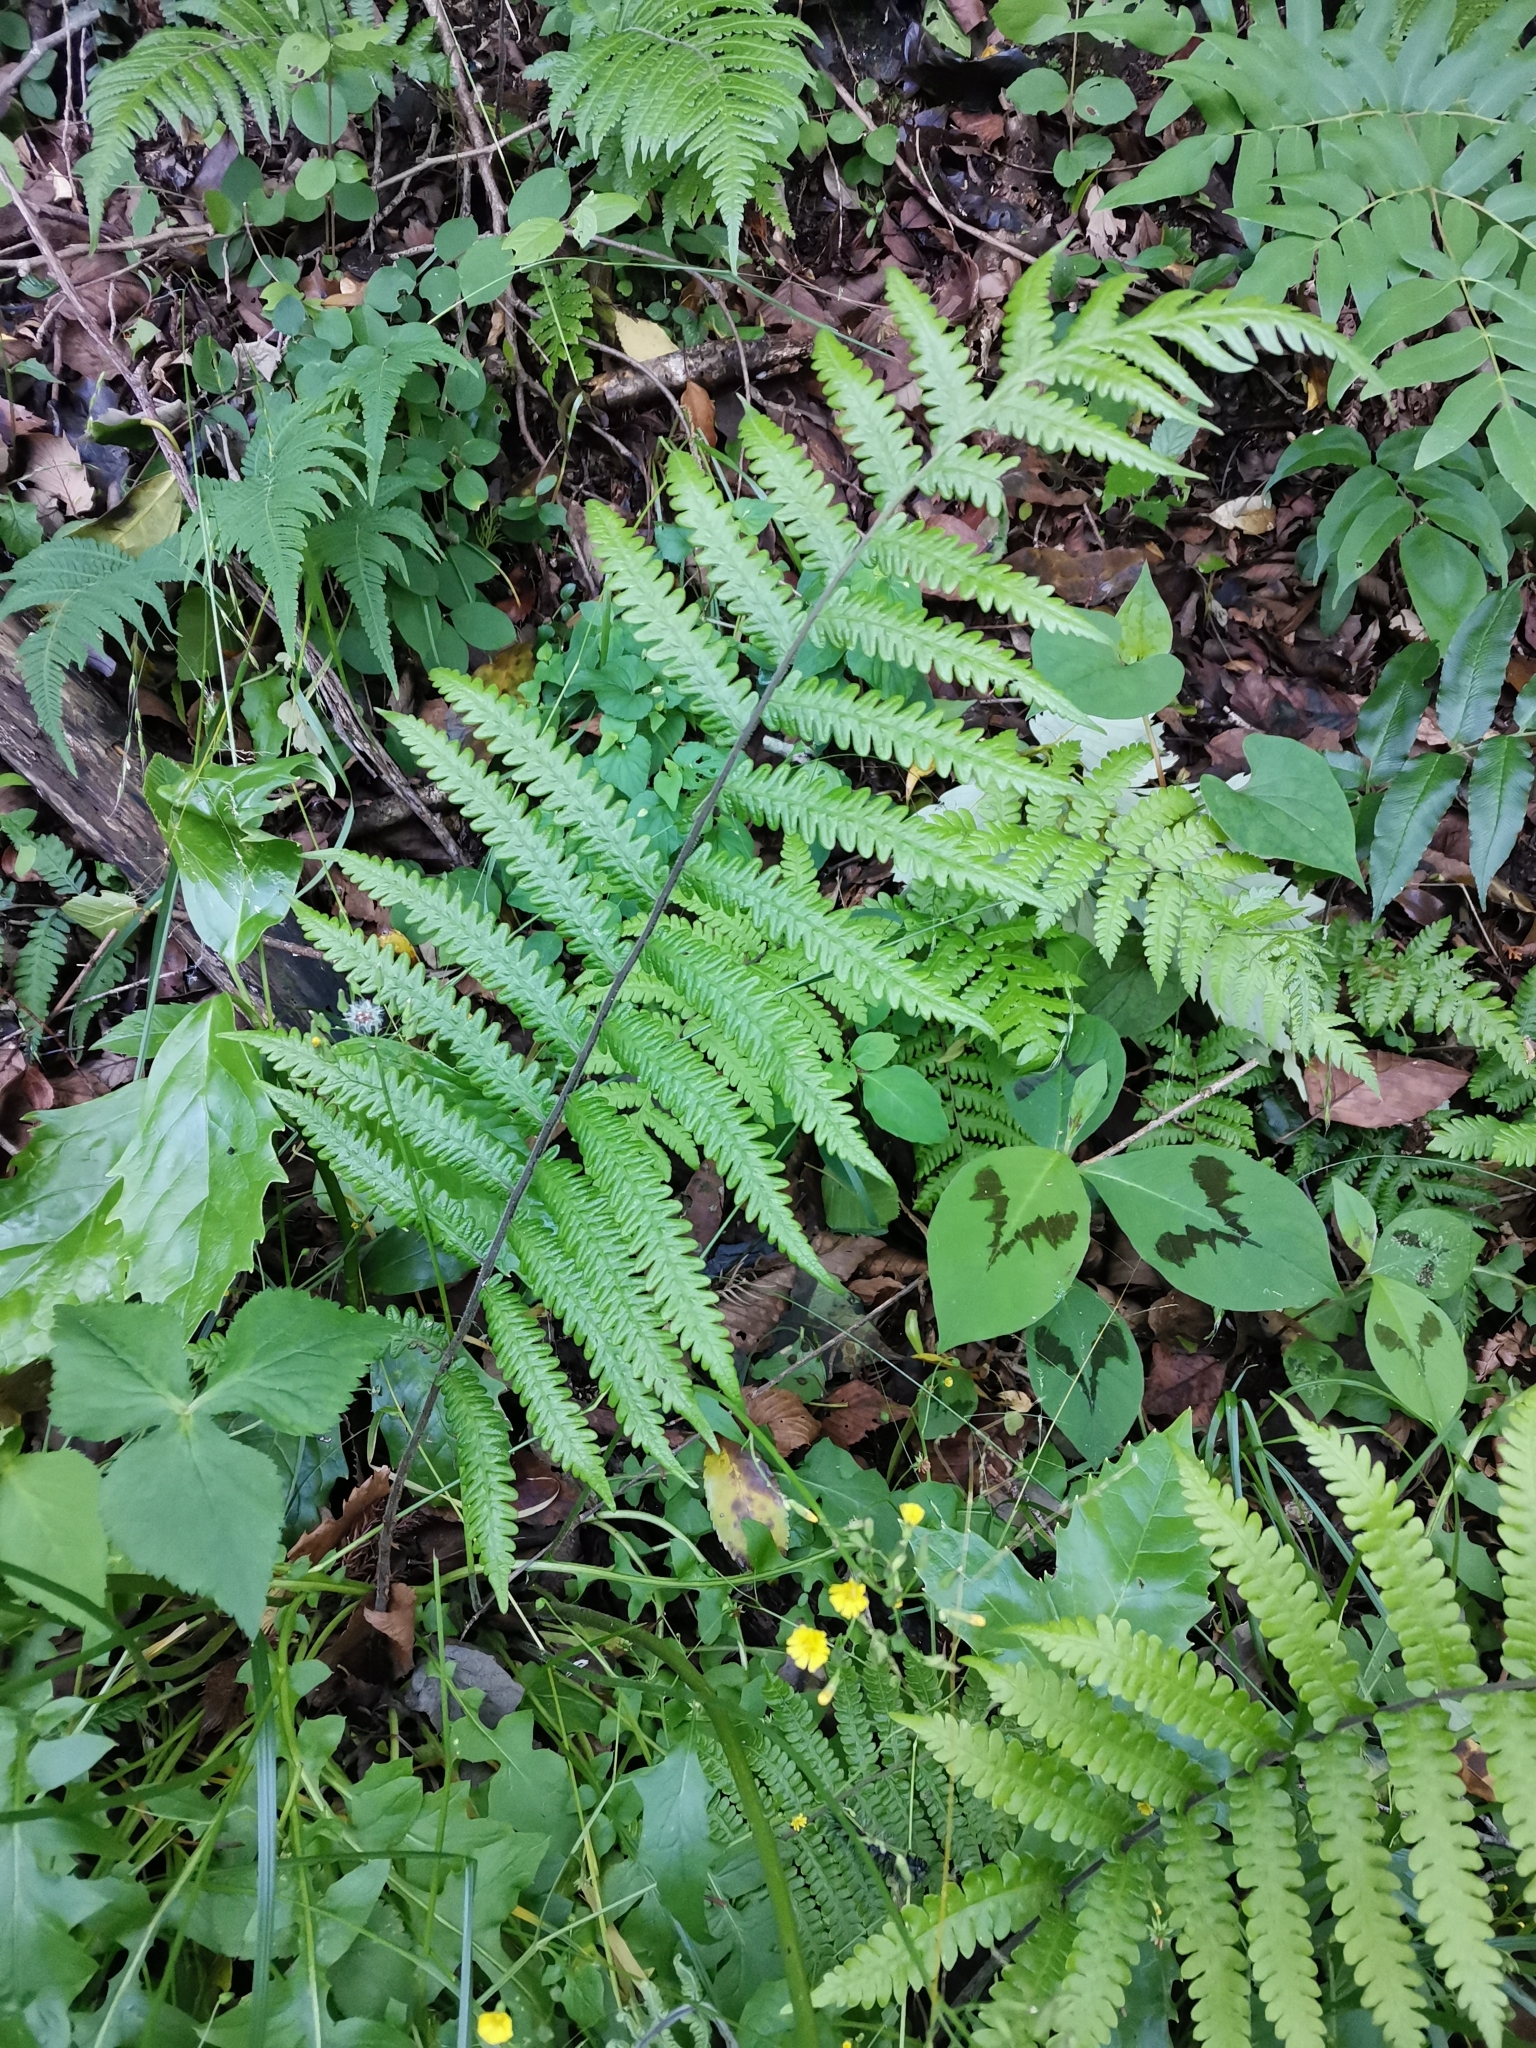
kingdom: Plantae
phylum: Tracheophyta
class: Polypodiopsida
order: Polypodiales
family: Thelypteridaceae
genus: Leptogramma
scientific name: Leptogramma mollissima
